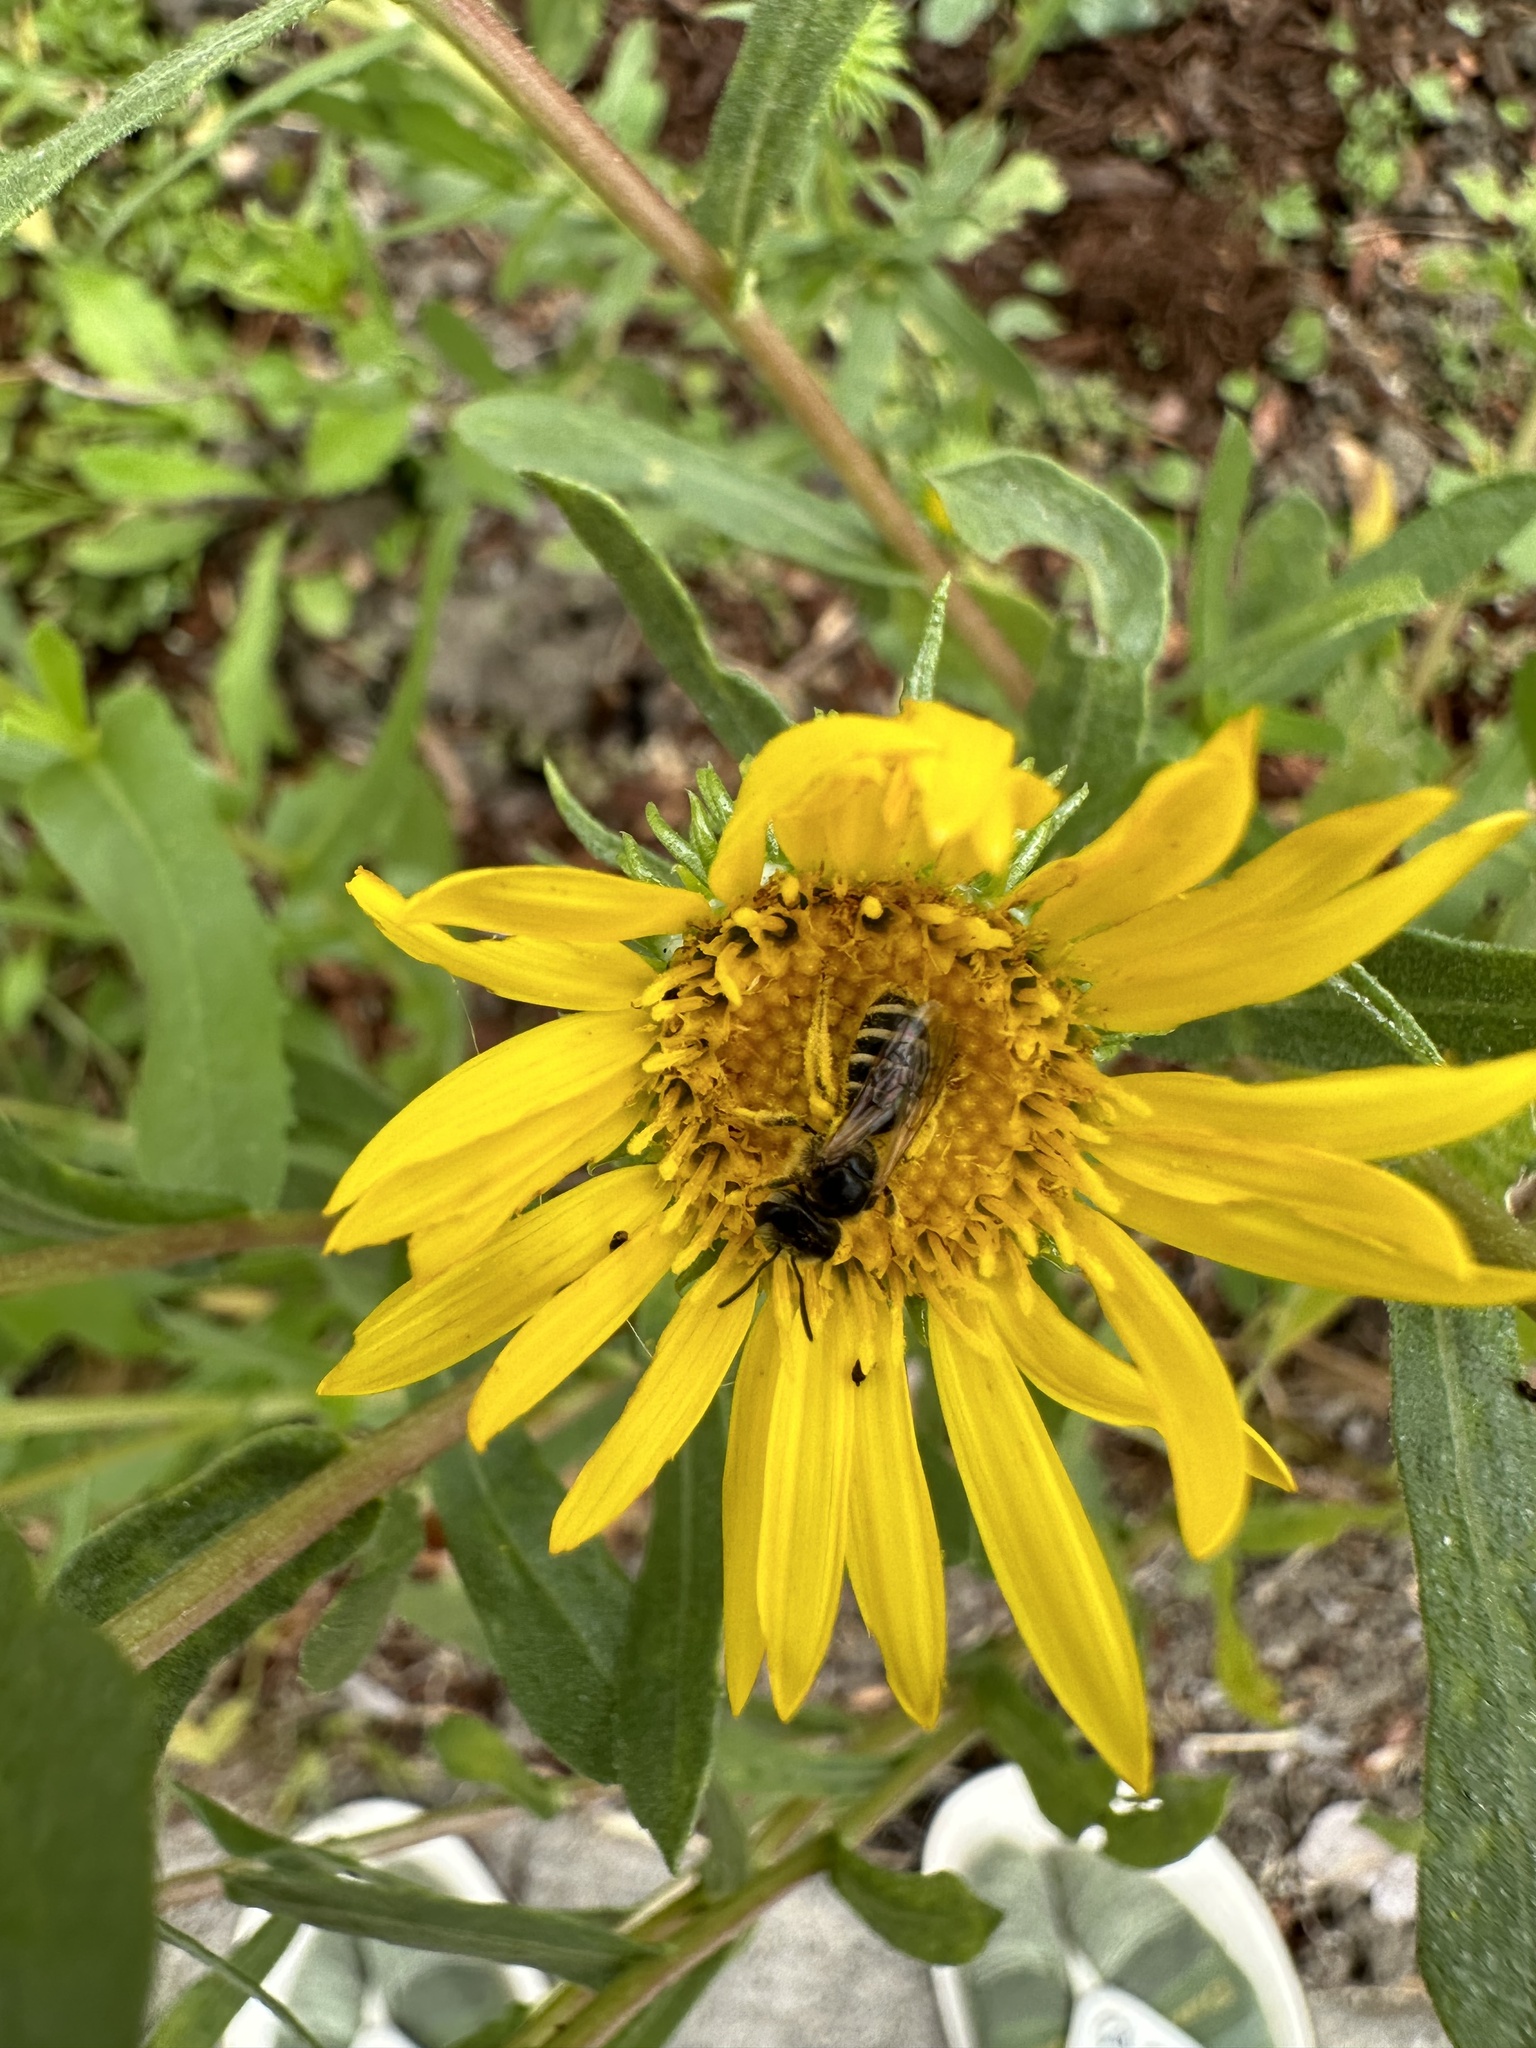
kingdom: Animalia
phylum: Arthropoda
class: Insecta
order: Hymenoptera
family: Halictidae
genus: Halictus
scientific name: Halictus ligatus
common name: Ligated furrow bee
